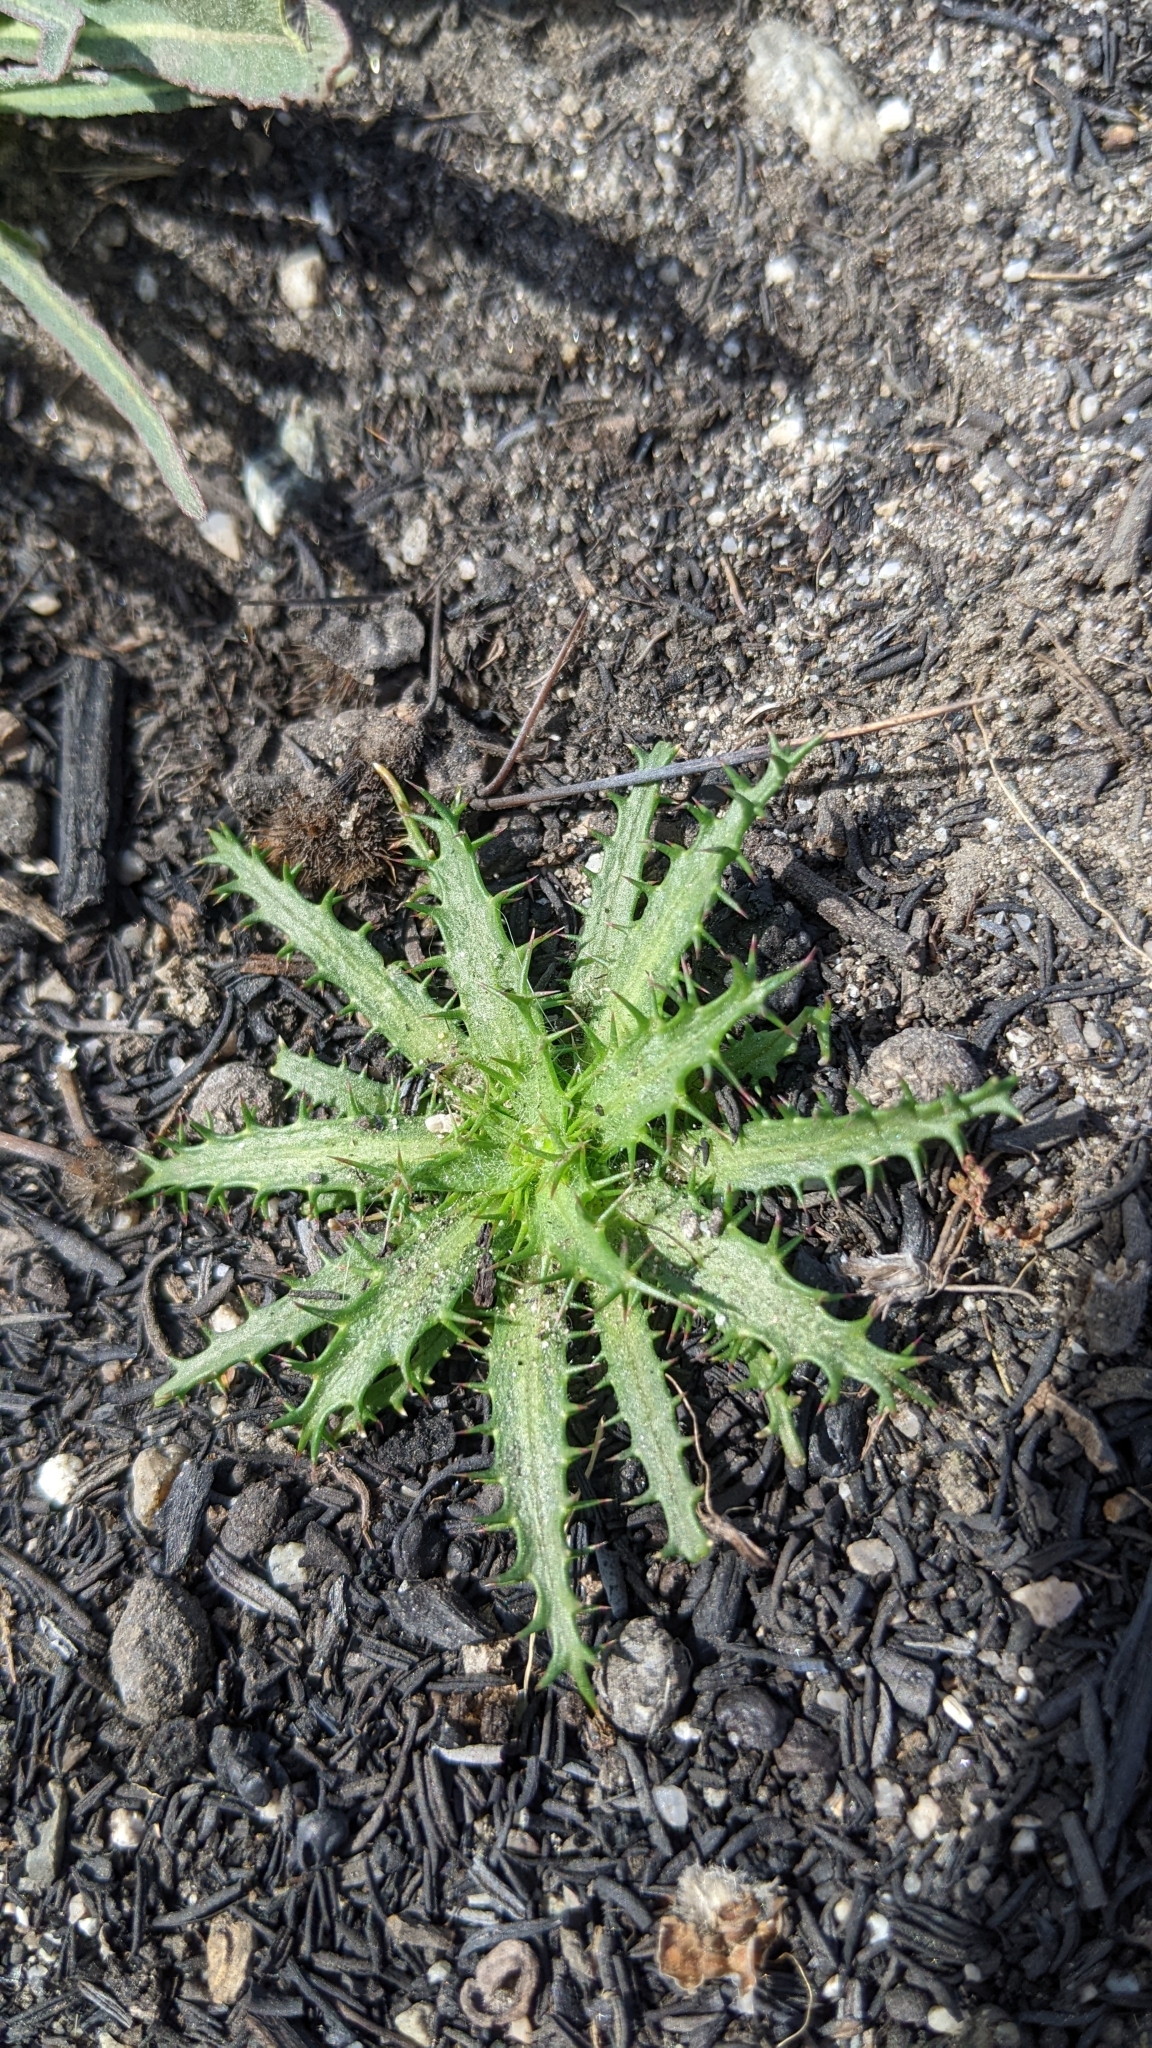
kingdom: Plantae
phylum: Tracheophyta
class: Magnoliopsida
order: Ericales
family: Polemoniaceae
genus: Navarretia
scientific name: Navarretia hamata
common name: Hooked navarretia
